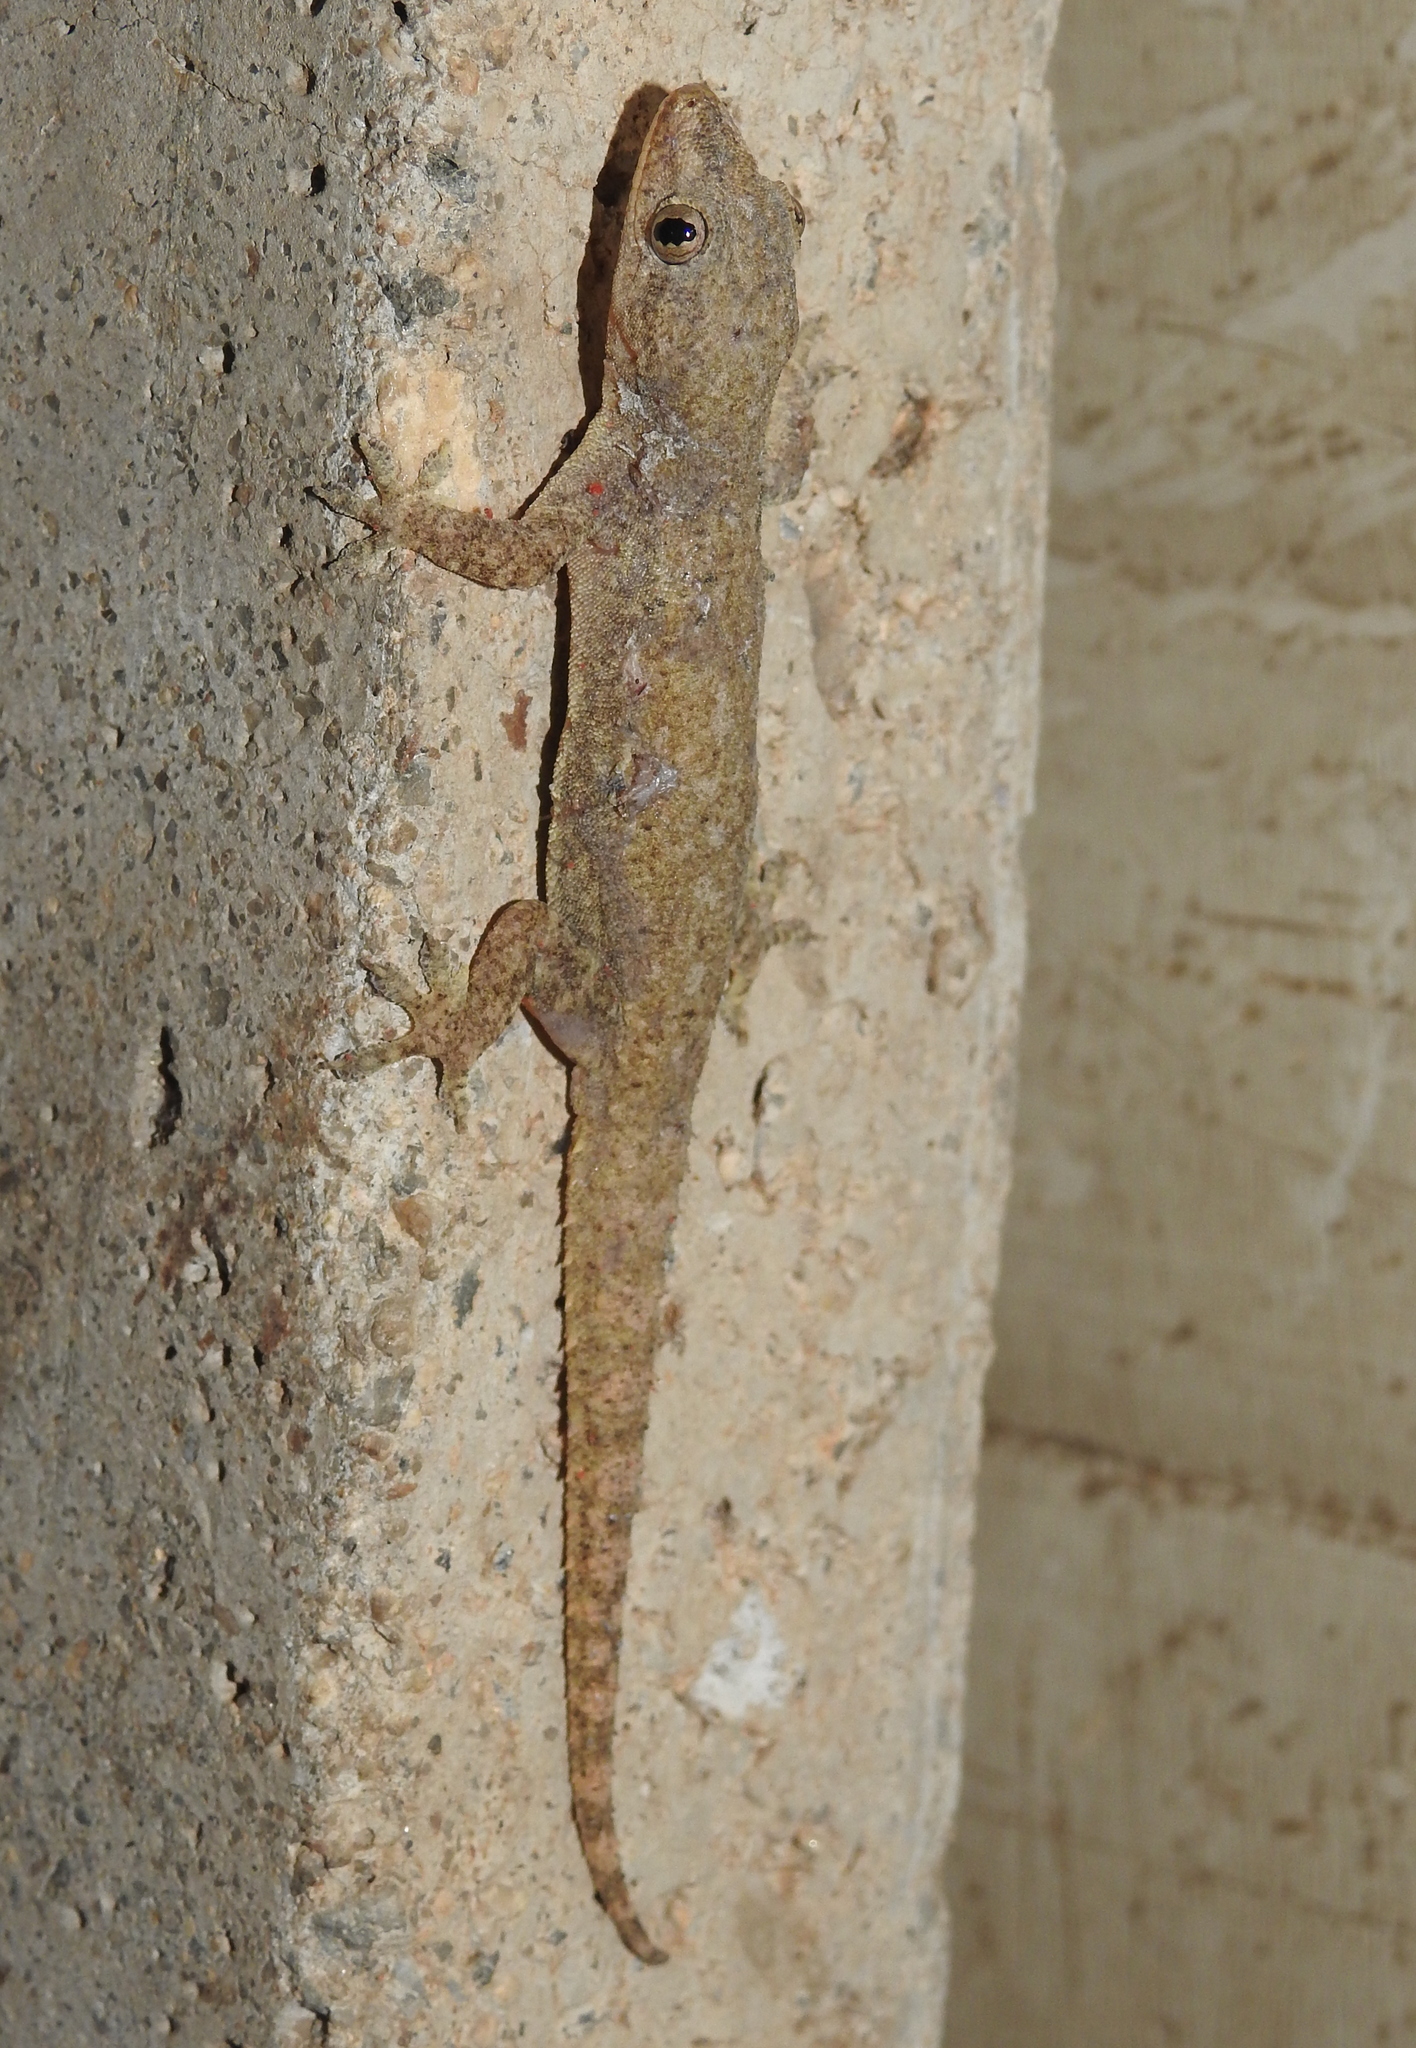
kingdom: Animalia
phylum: Chordata
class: Squamata
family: Gekkonidae
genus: Hemidactylus
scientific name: Hemidactylus frenatus
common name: Common house gecko
